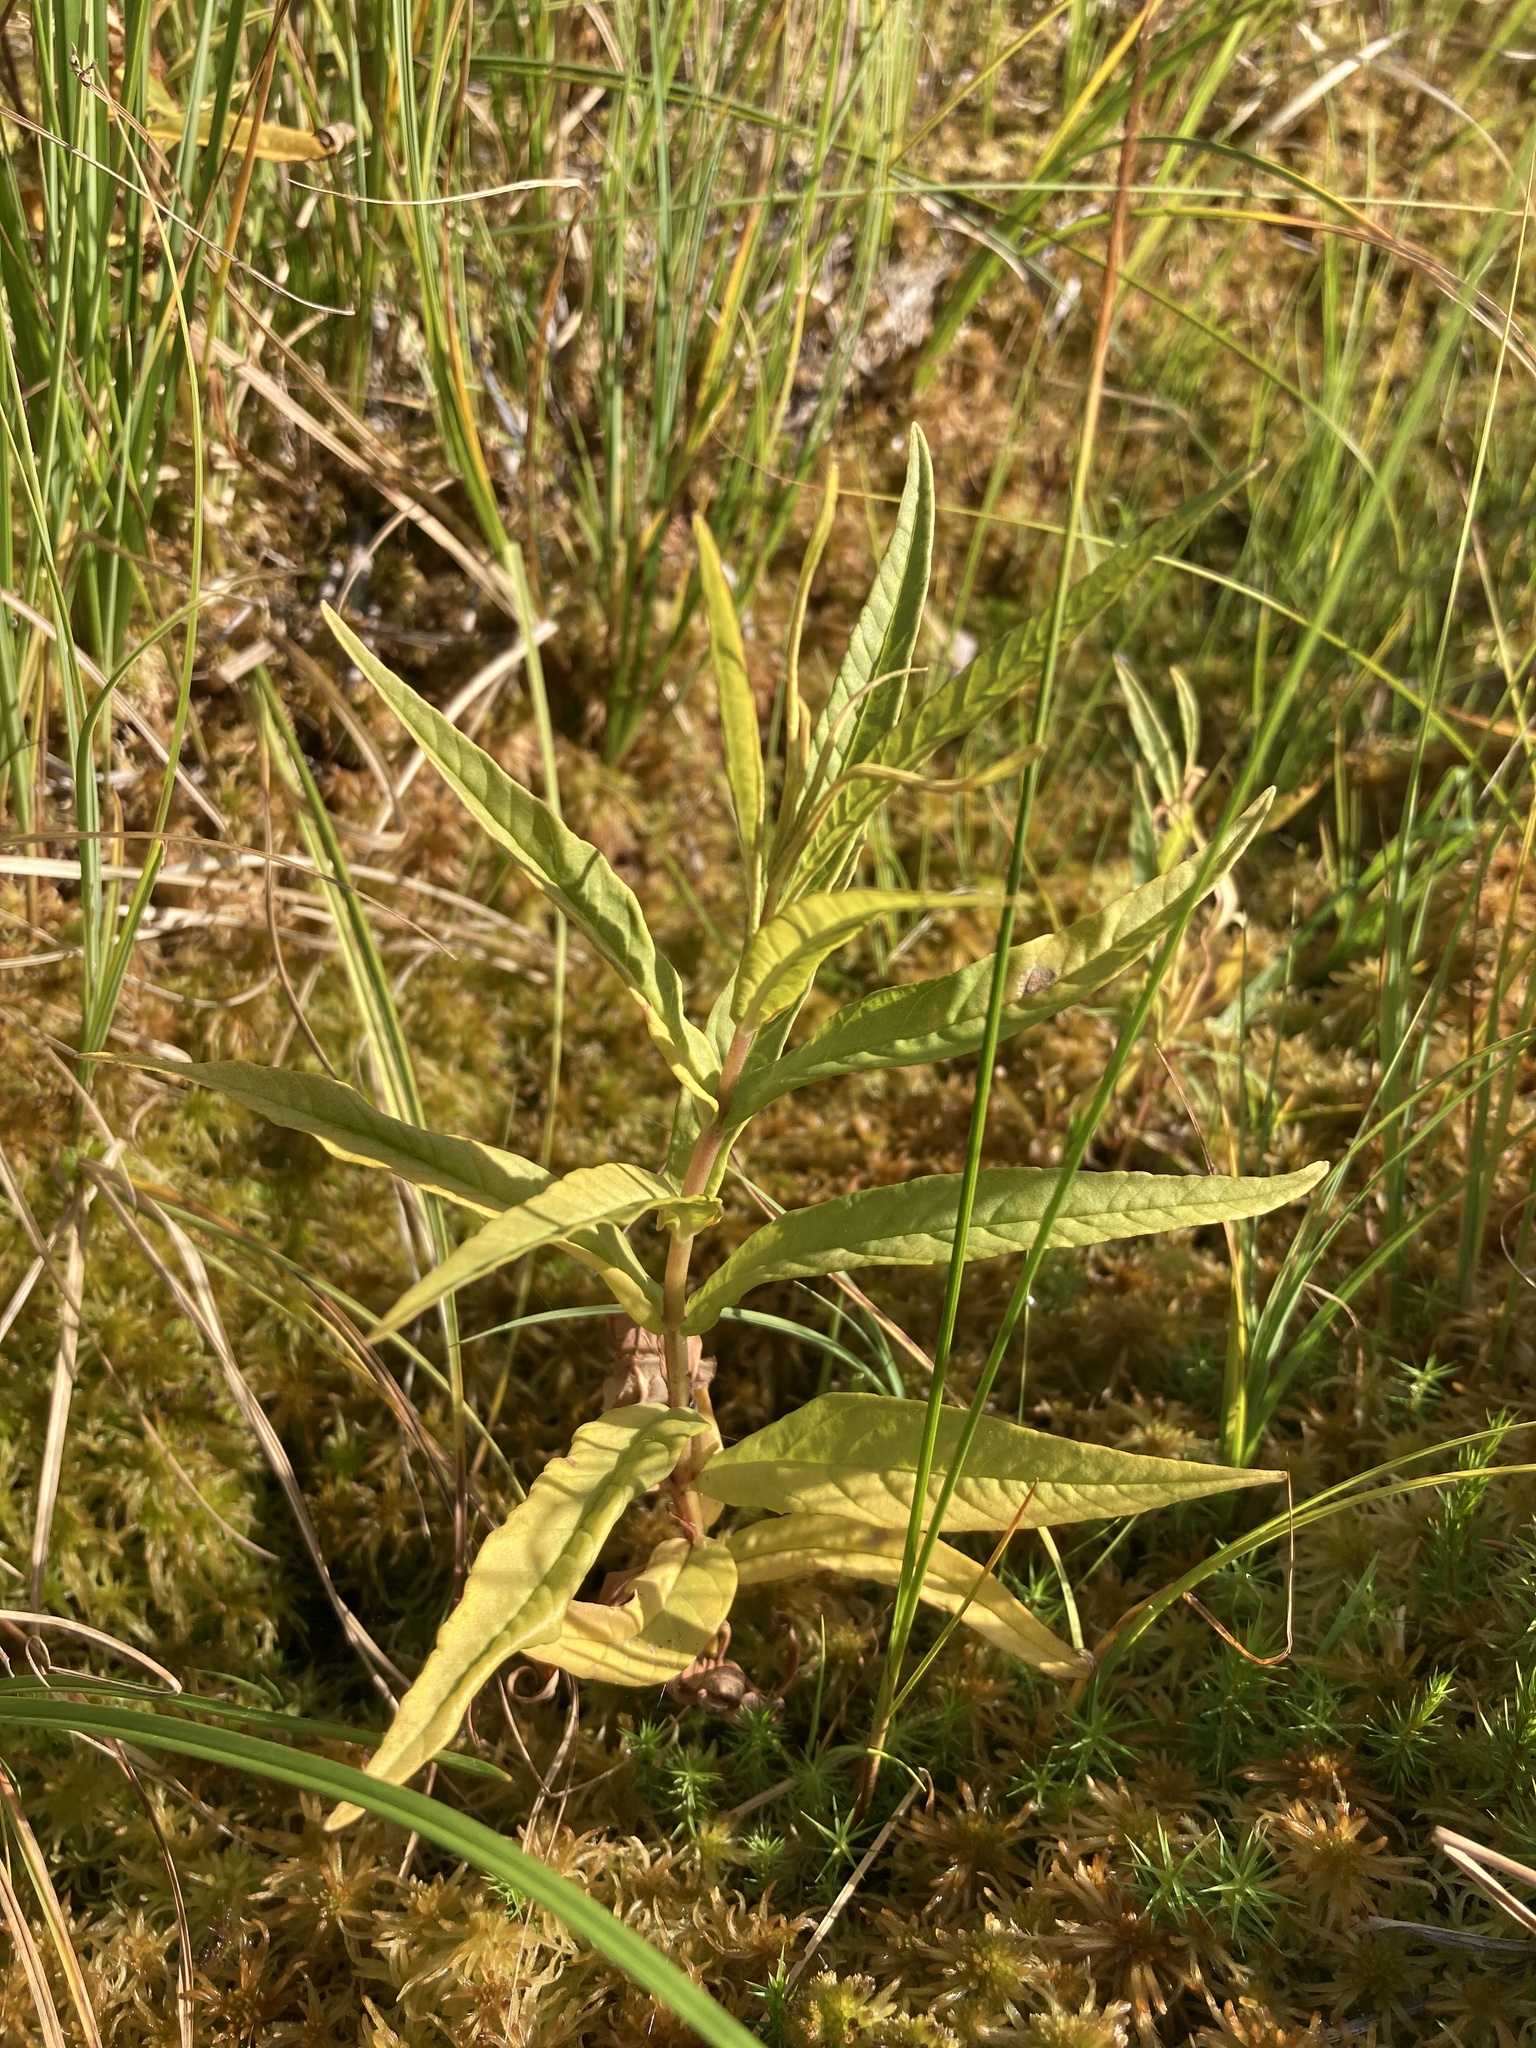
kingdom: Plantae
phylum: Tracheophyta
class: Magnoliopsida
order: Ericales
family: Primulaceae
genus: Lysimachia
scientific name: Lysimachia thyrsiflora
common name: Tufted loosestrife
